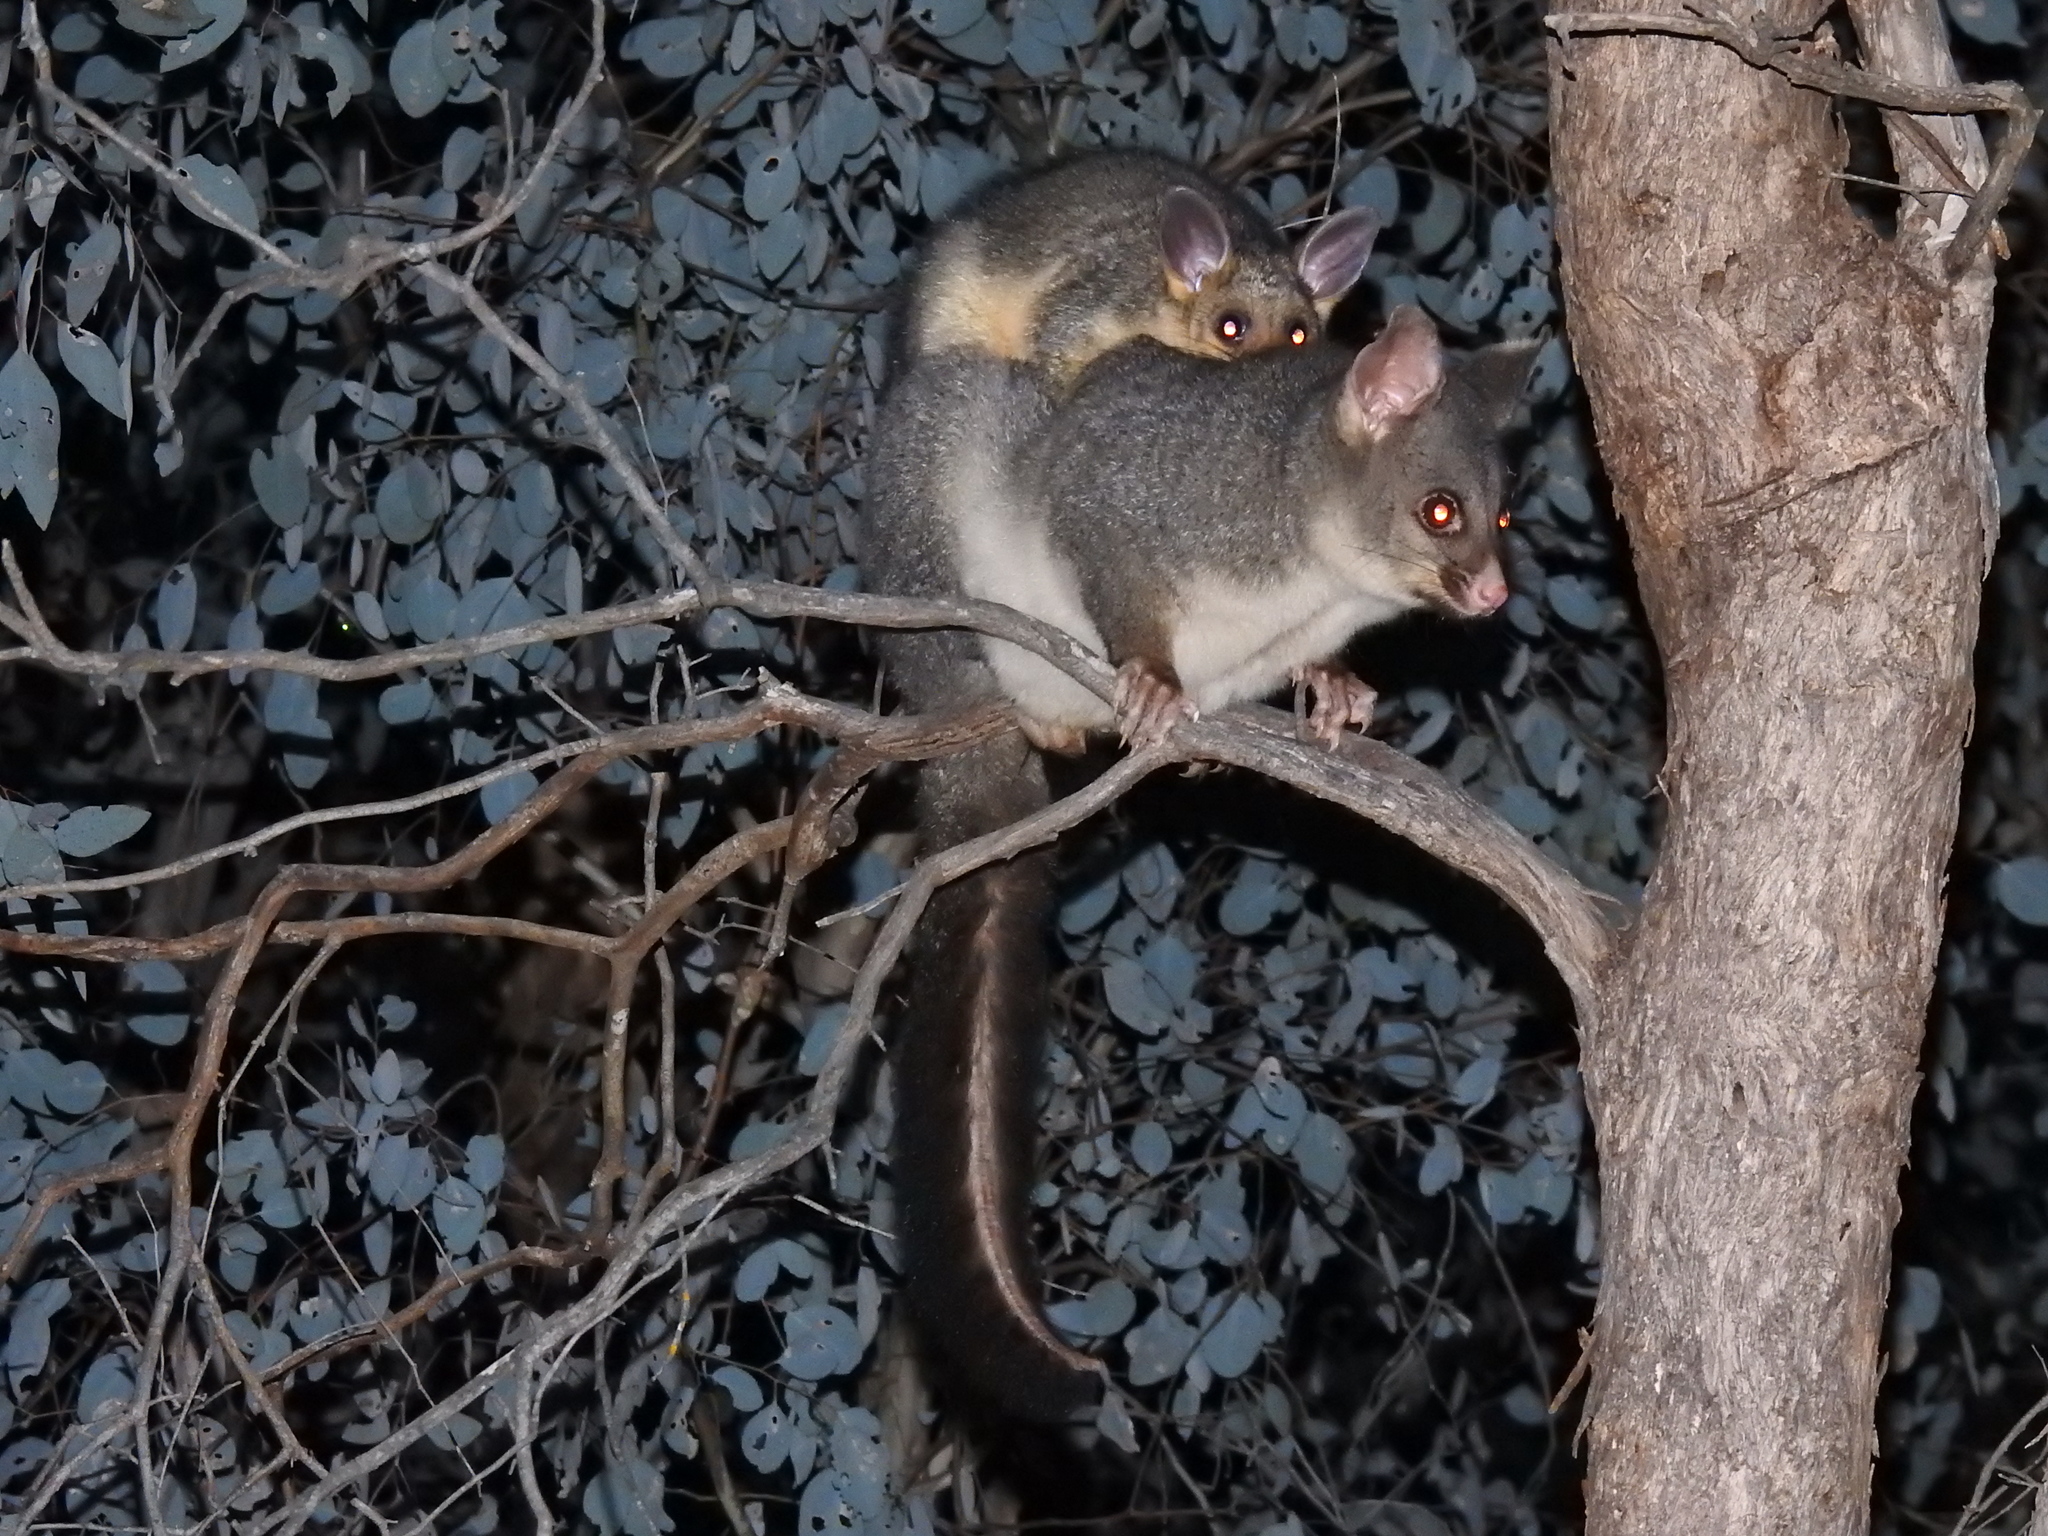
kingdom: Animalia
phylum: Chordata
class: Mammalia
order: Diprotodontia
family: Phalangeridae
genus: Trichosurus
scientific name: Trichosurus vulpecula
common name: Common brushtail
